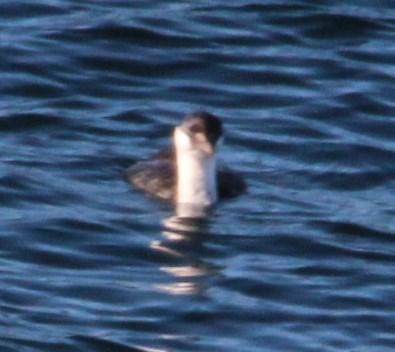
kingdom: Animalia
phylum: Chordata
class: Aves
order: Suliformes
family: Phalacrocoracidae
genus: Leucocarbo
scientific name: Leucocarbo atriceps
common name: Imperial shag
